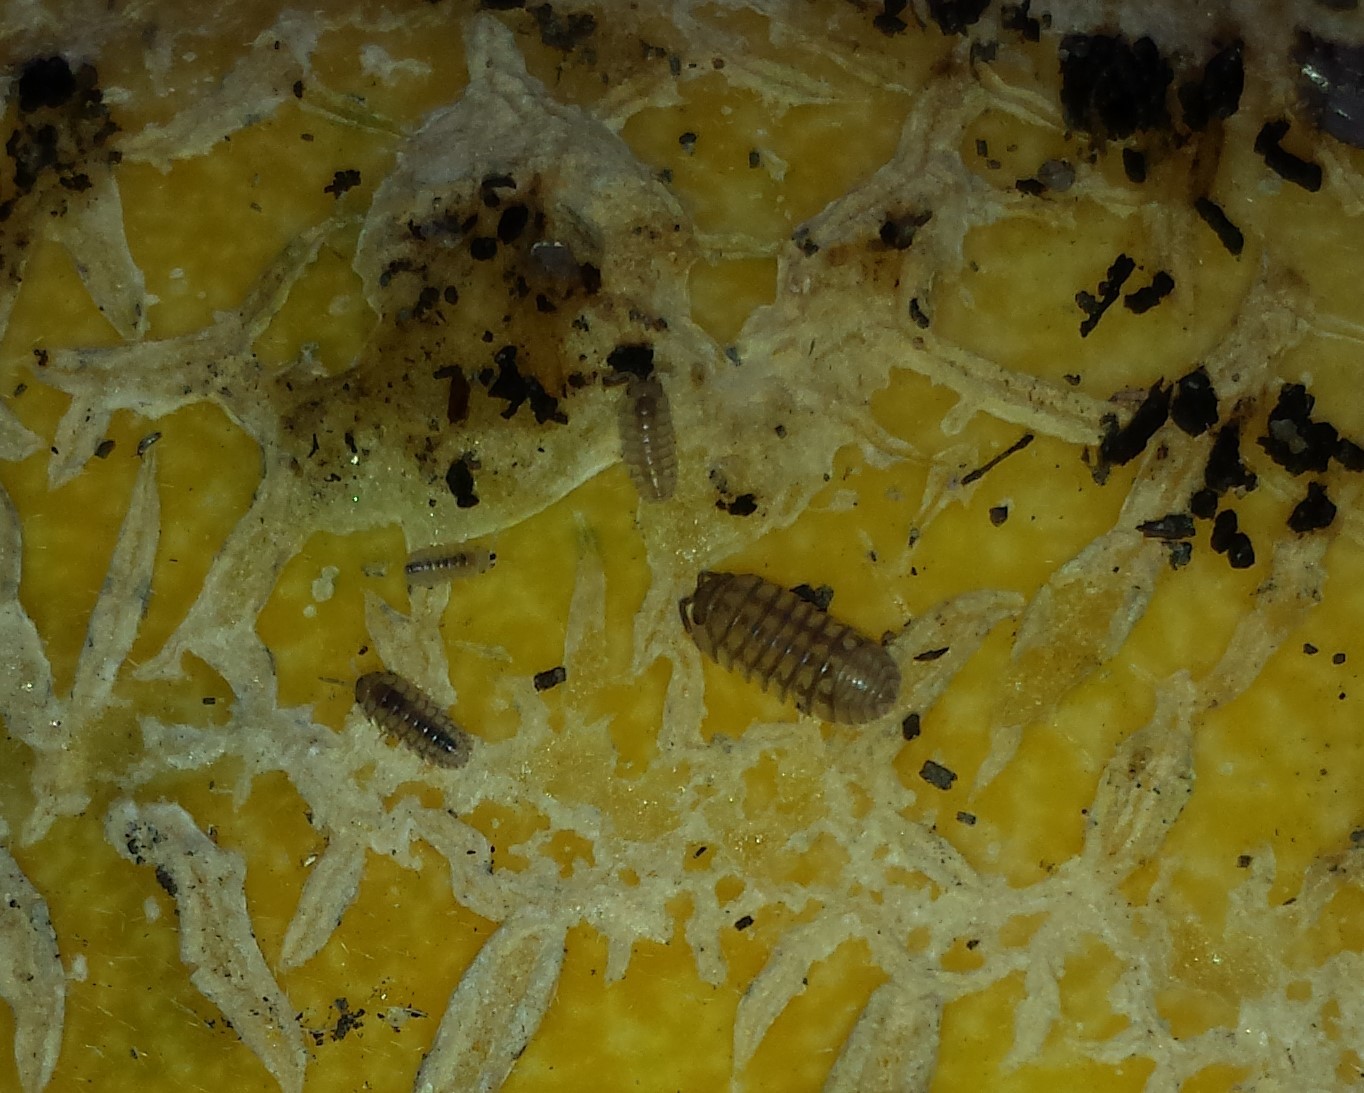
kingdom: Animalia
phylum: Arthropoda
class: Malacostraca
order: Isopoda
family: Armadillidiidae
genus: Armadillidium
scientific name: Armadillidium nasatum
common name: Isopod
